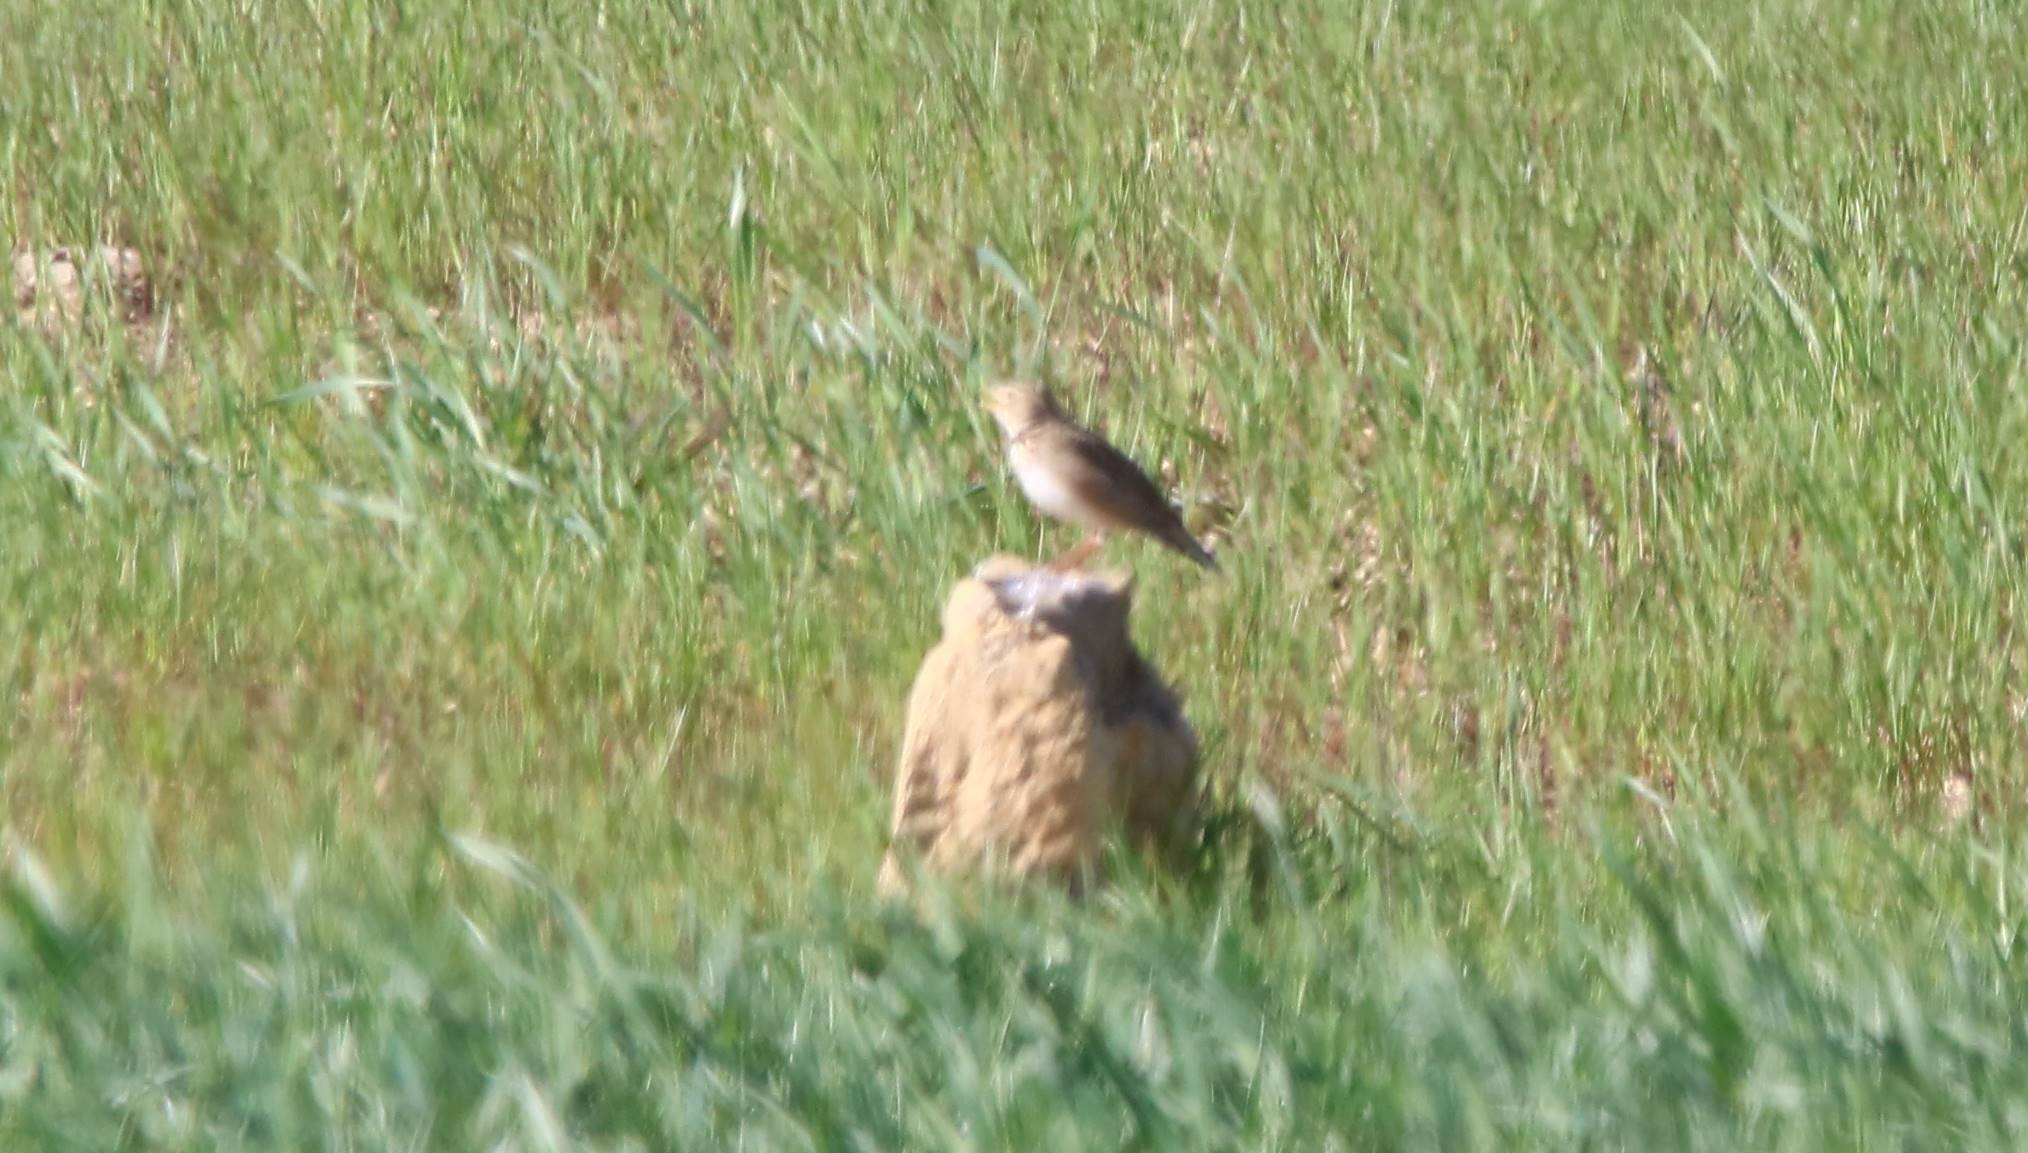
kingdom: Animalia
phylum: Chordata
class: Aves
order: Passeriformes
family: Alaudidae
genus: Melanocorypha
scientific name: Melanocorypha calandra
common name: Calandra lark
